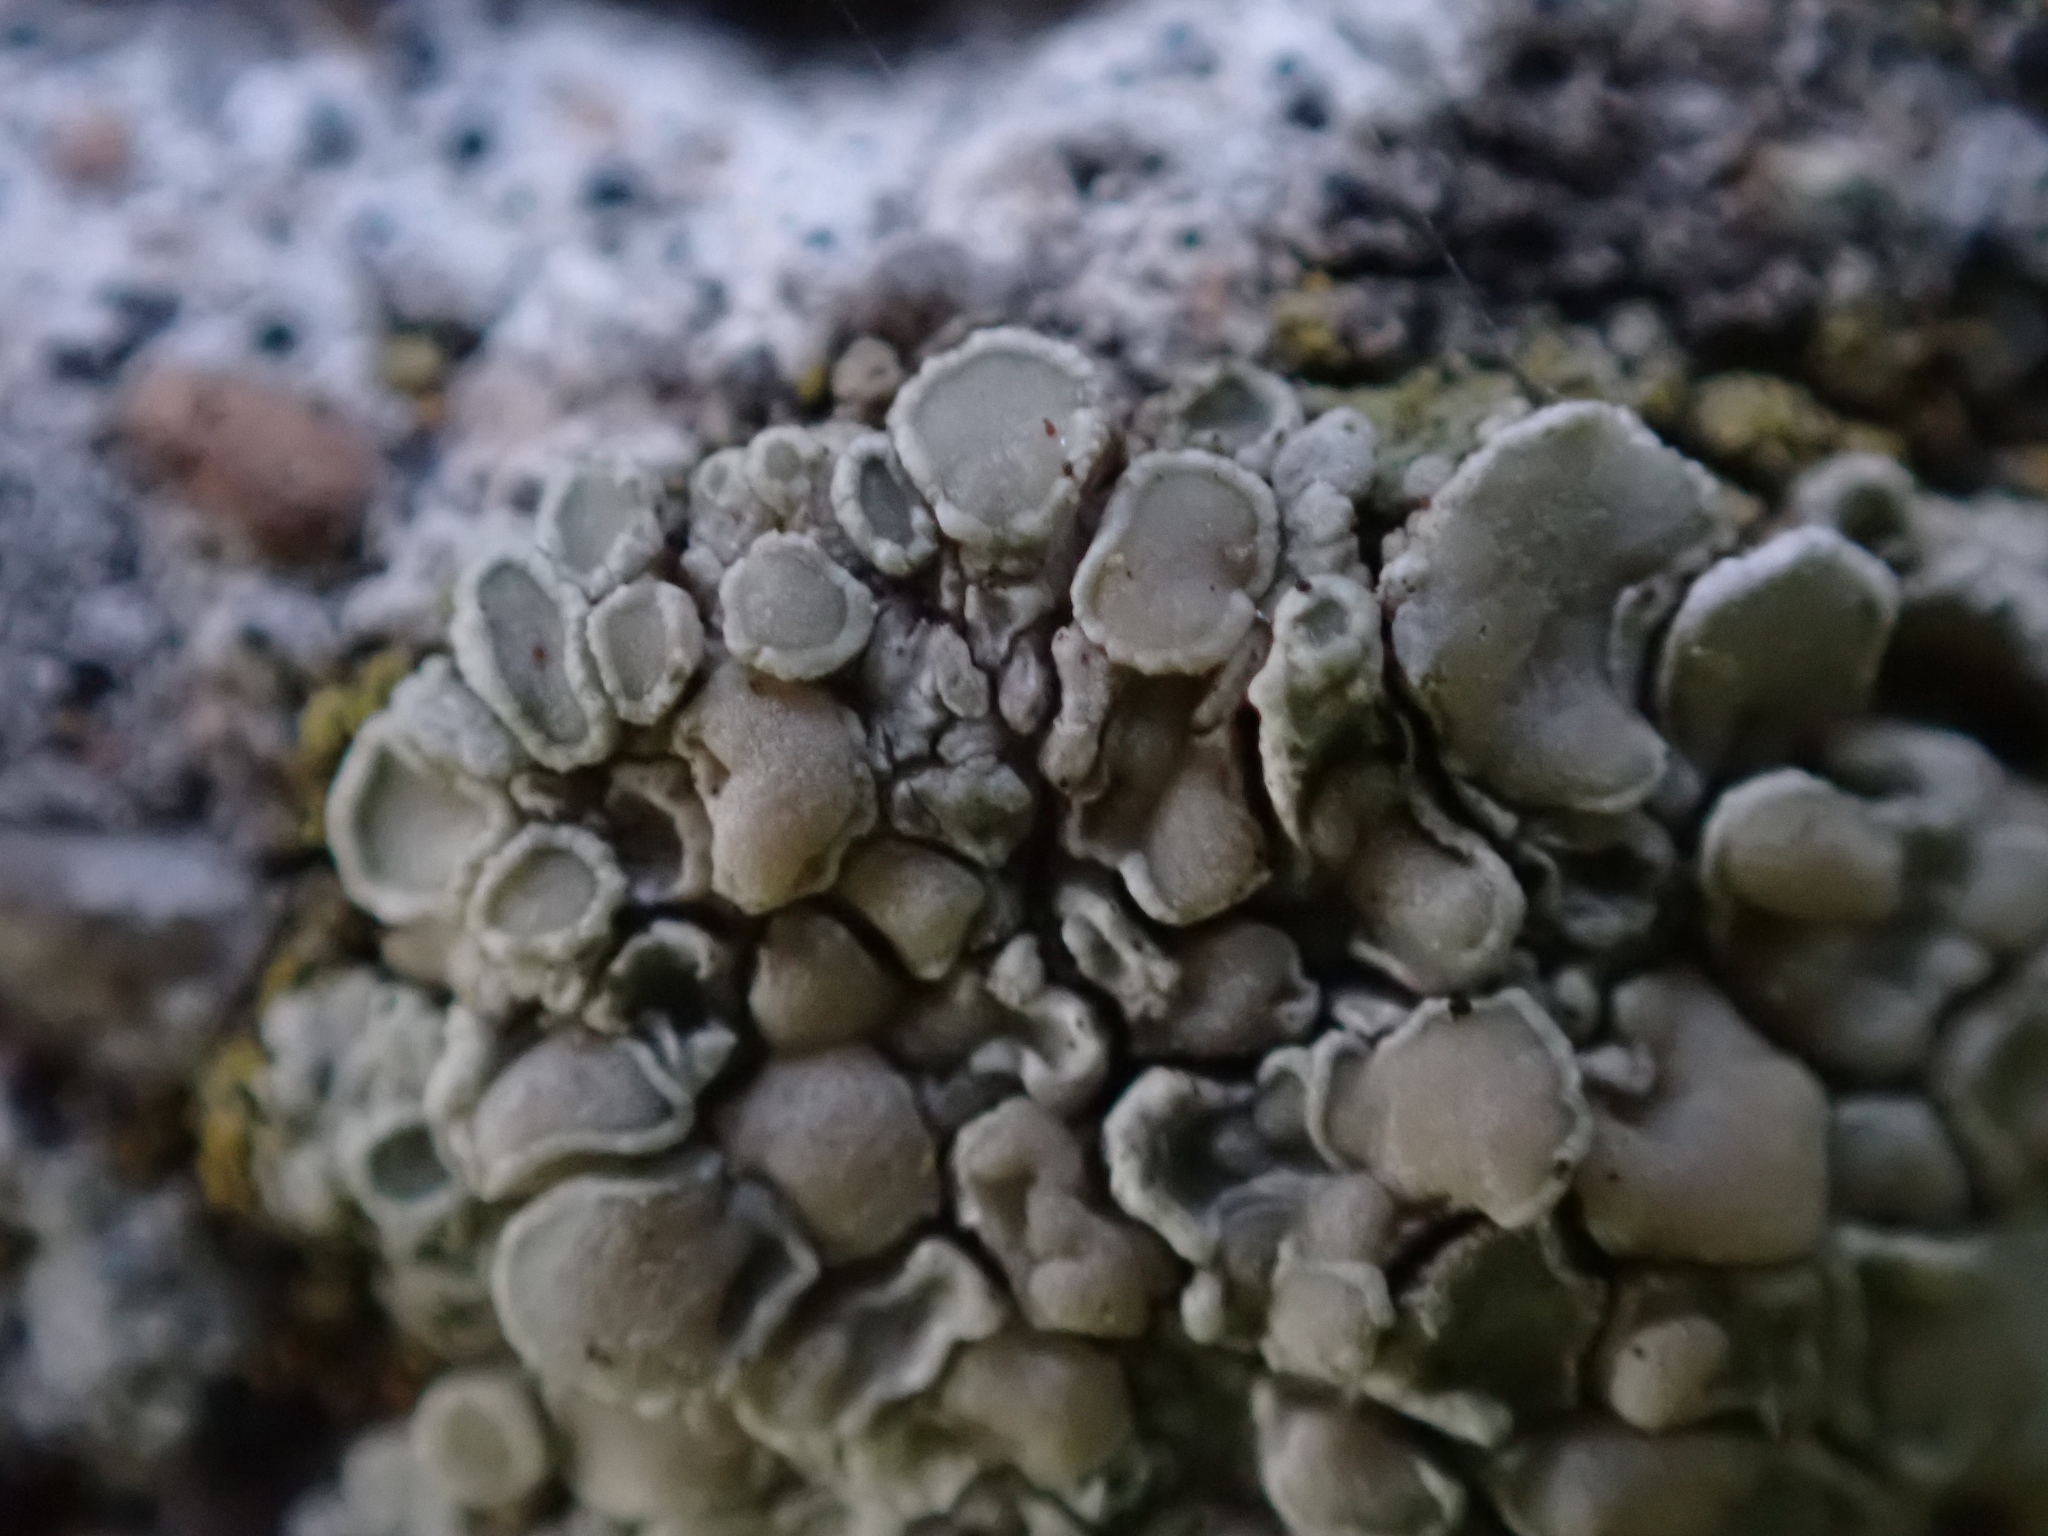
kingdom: Fungi
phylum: Ascomycota
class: Lecanoromycetes
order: Lecanorales
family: Lecanoraceae
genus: Polyozosia
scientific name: Polyozosia albescens
